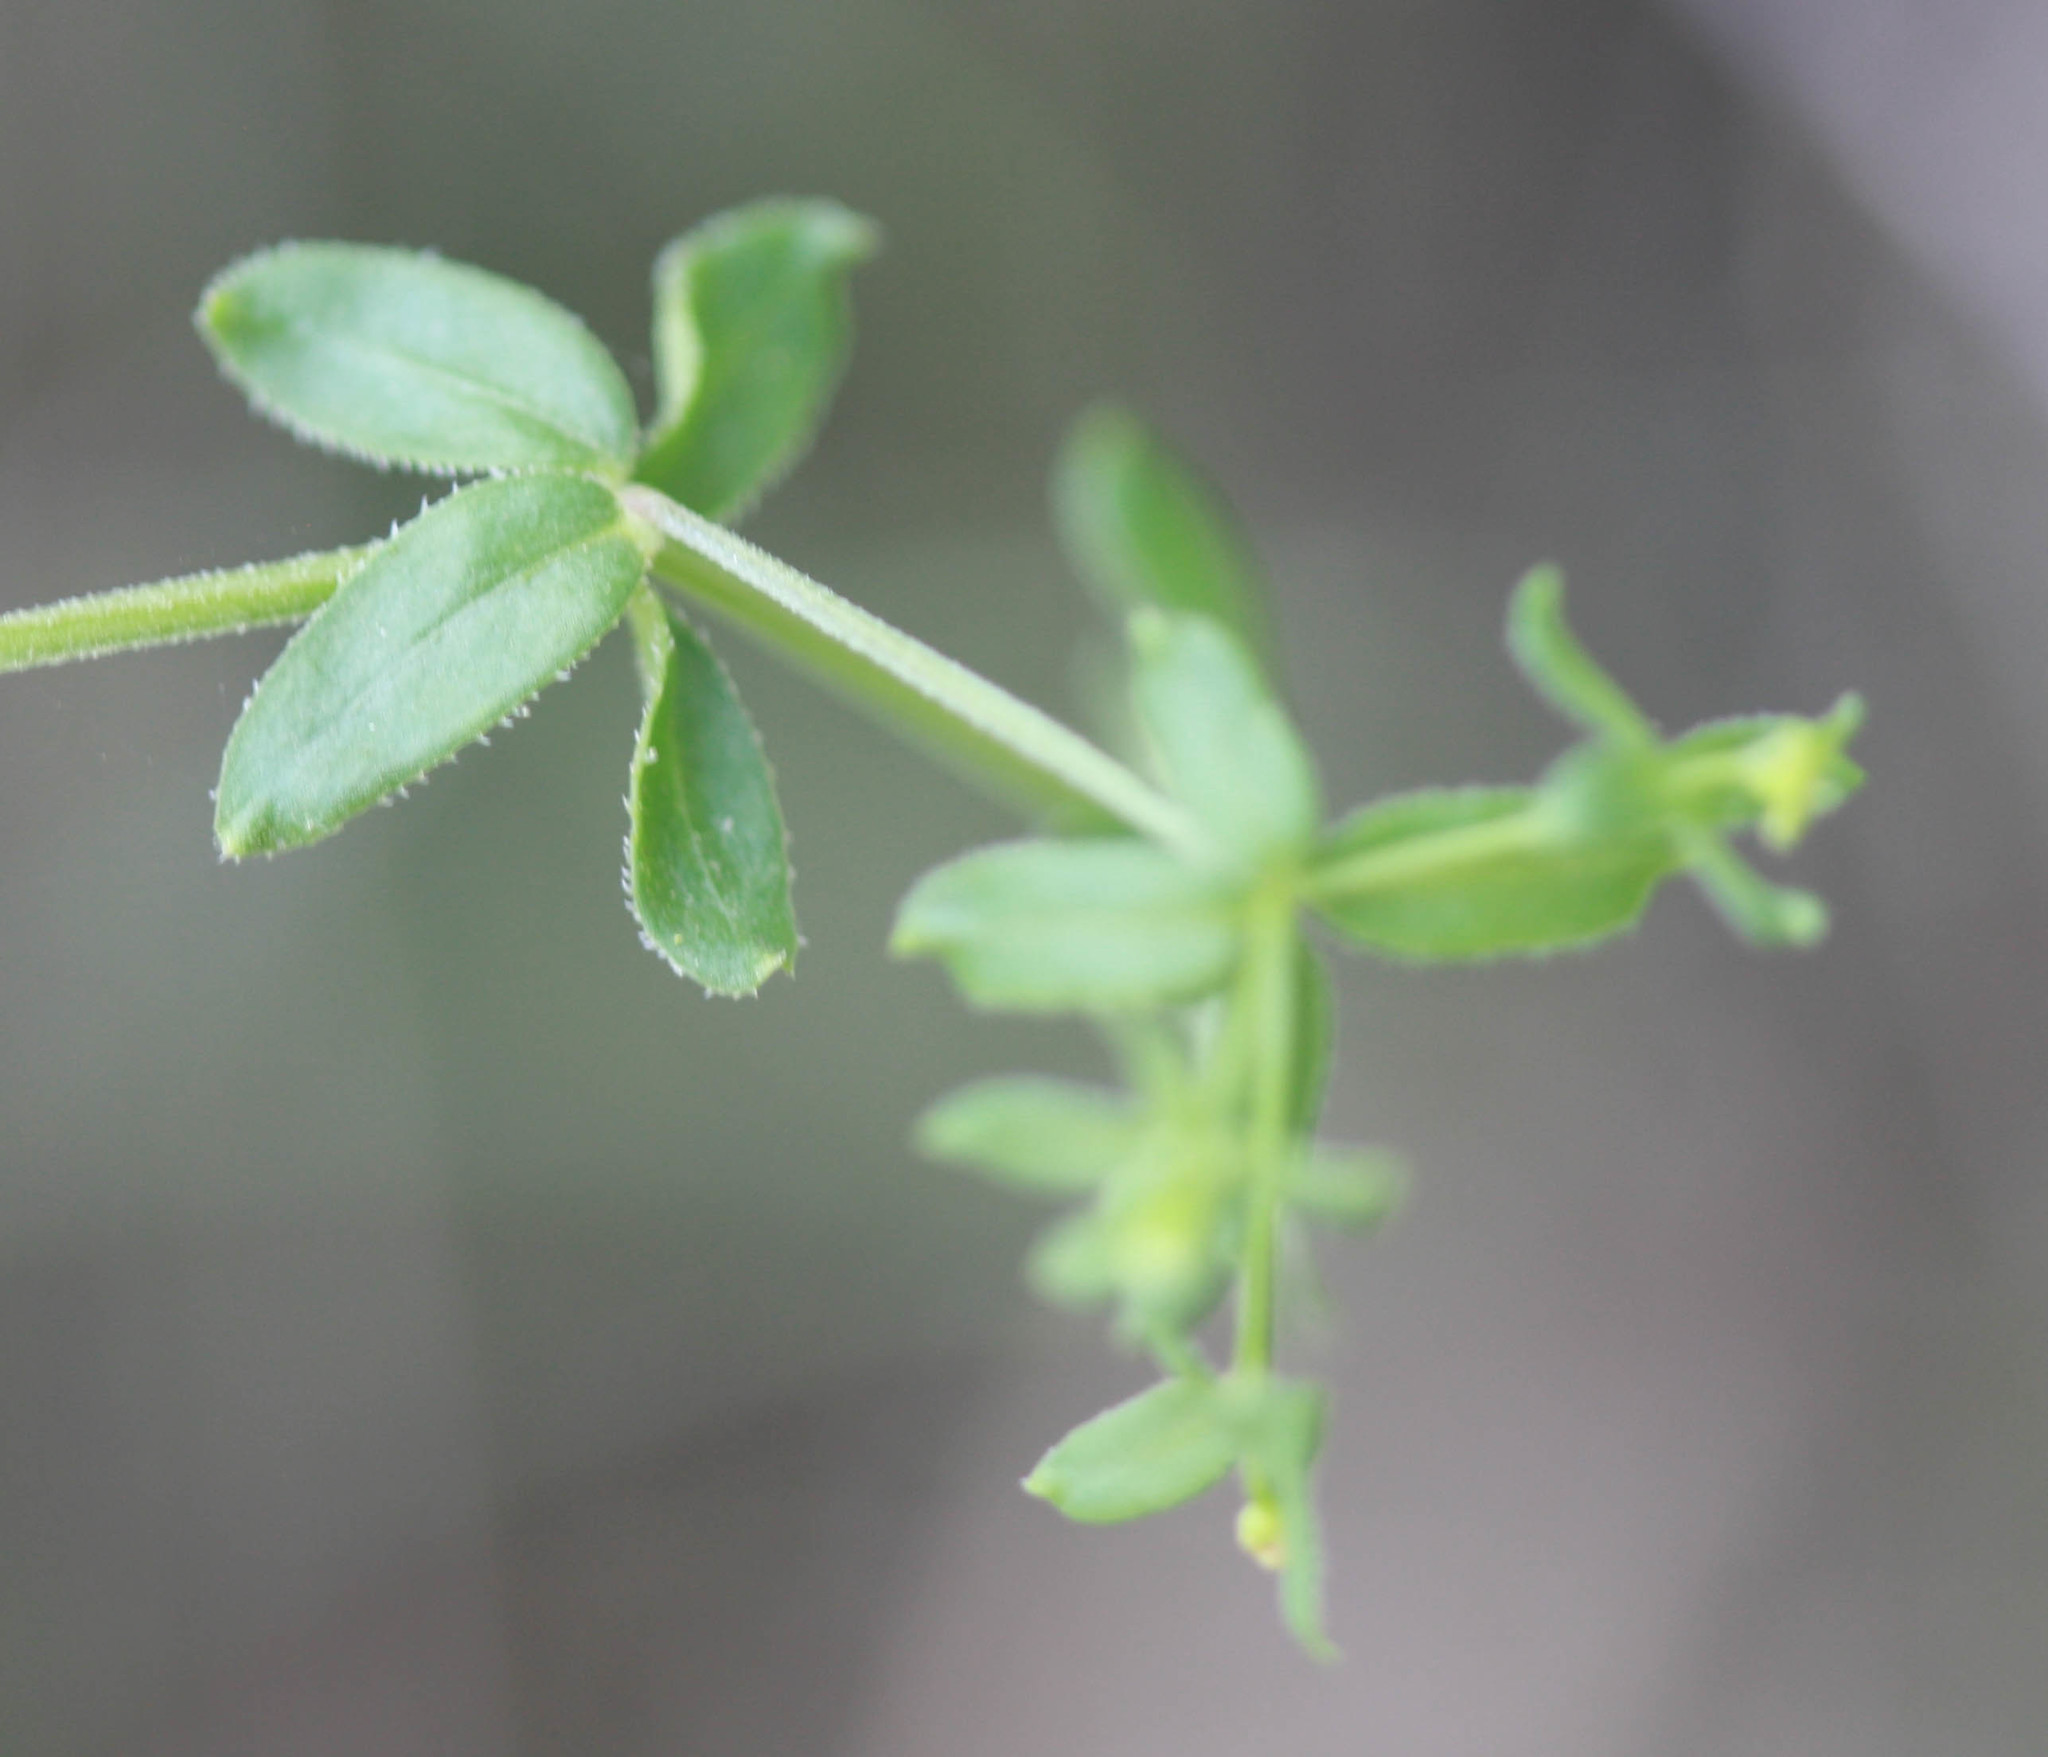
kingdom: Plantae
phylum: Tracheophyta
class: Magnoliopsida
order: Gentianales
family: Rubiaceae
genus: Galium
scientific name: Galium porrigens
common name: Climbing bedstraw
